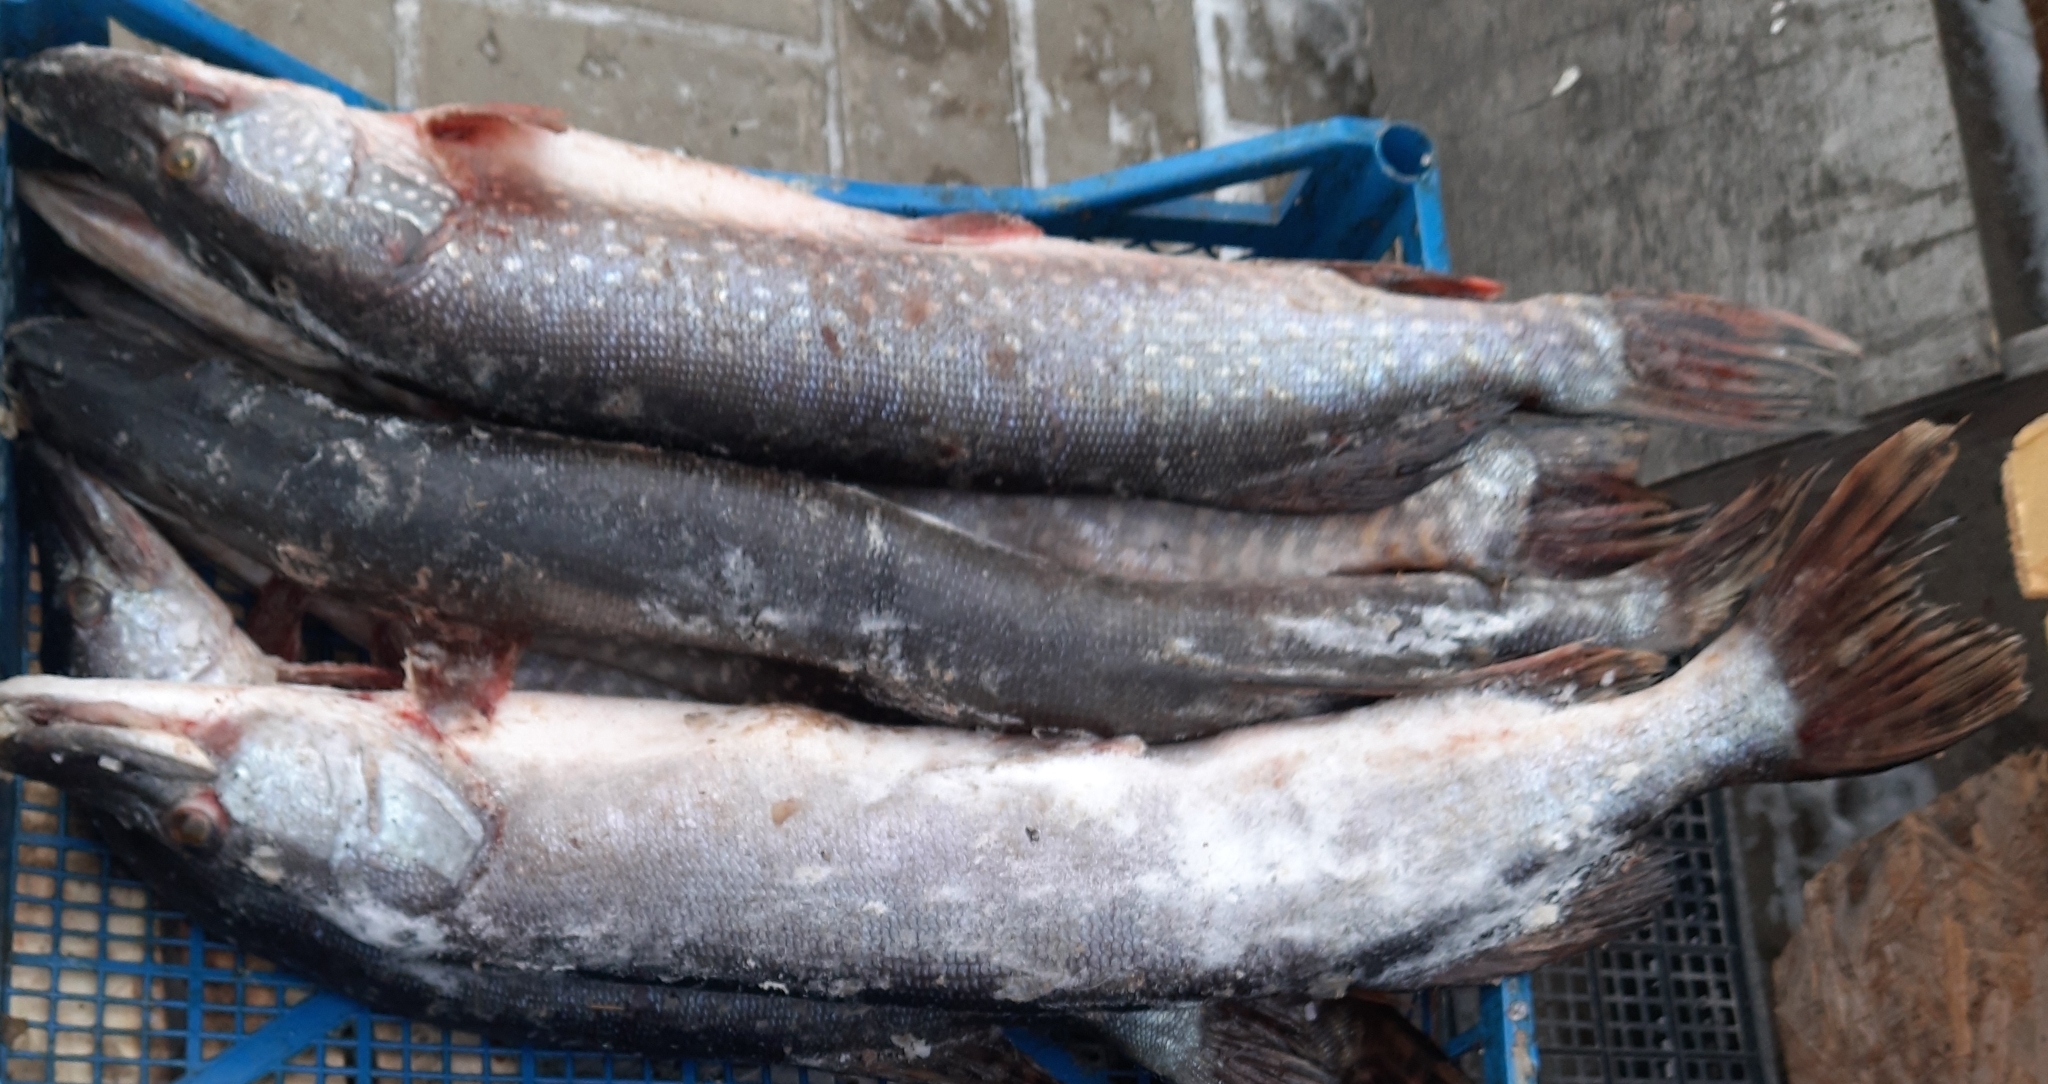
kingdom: Animalia
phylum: Chordata
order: Esociformes
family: Esocidae
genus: Esox
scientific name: Esox lucius
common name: Northern pike
